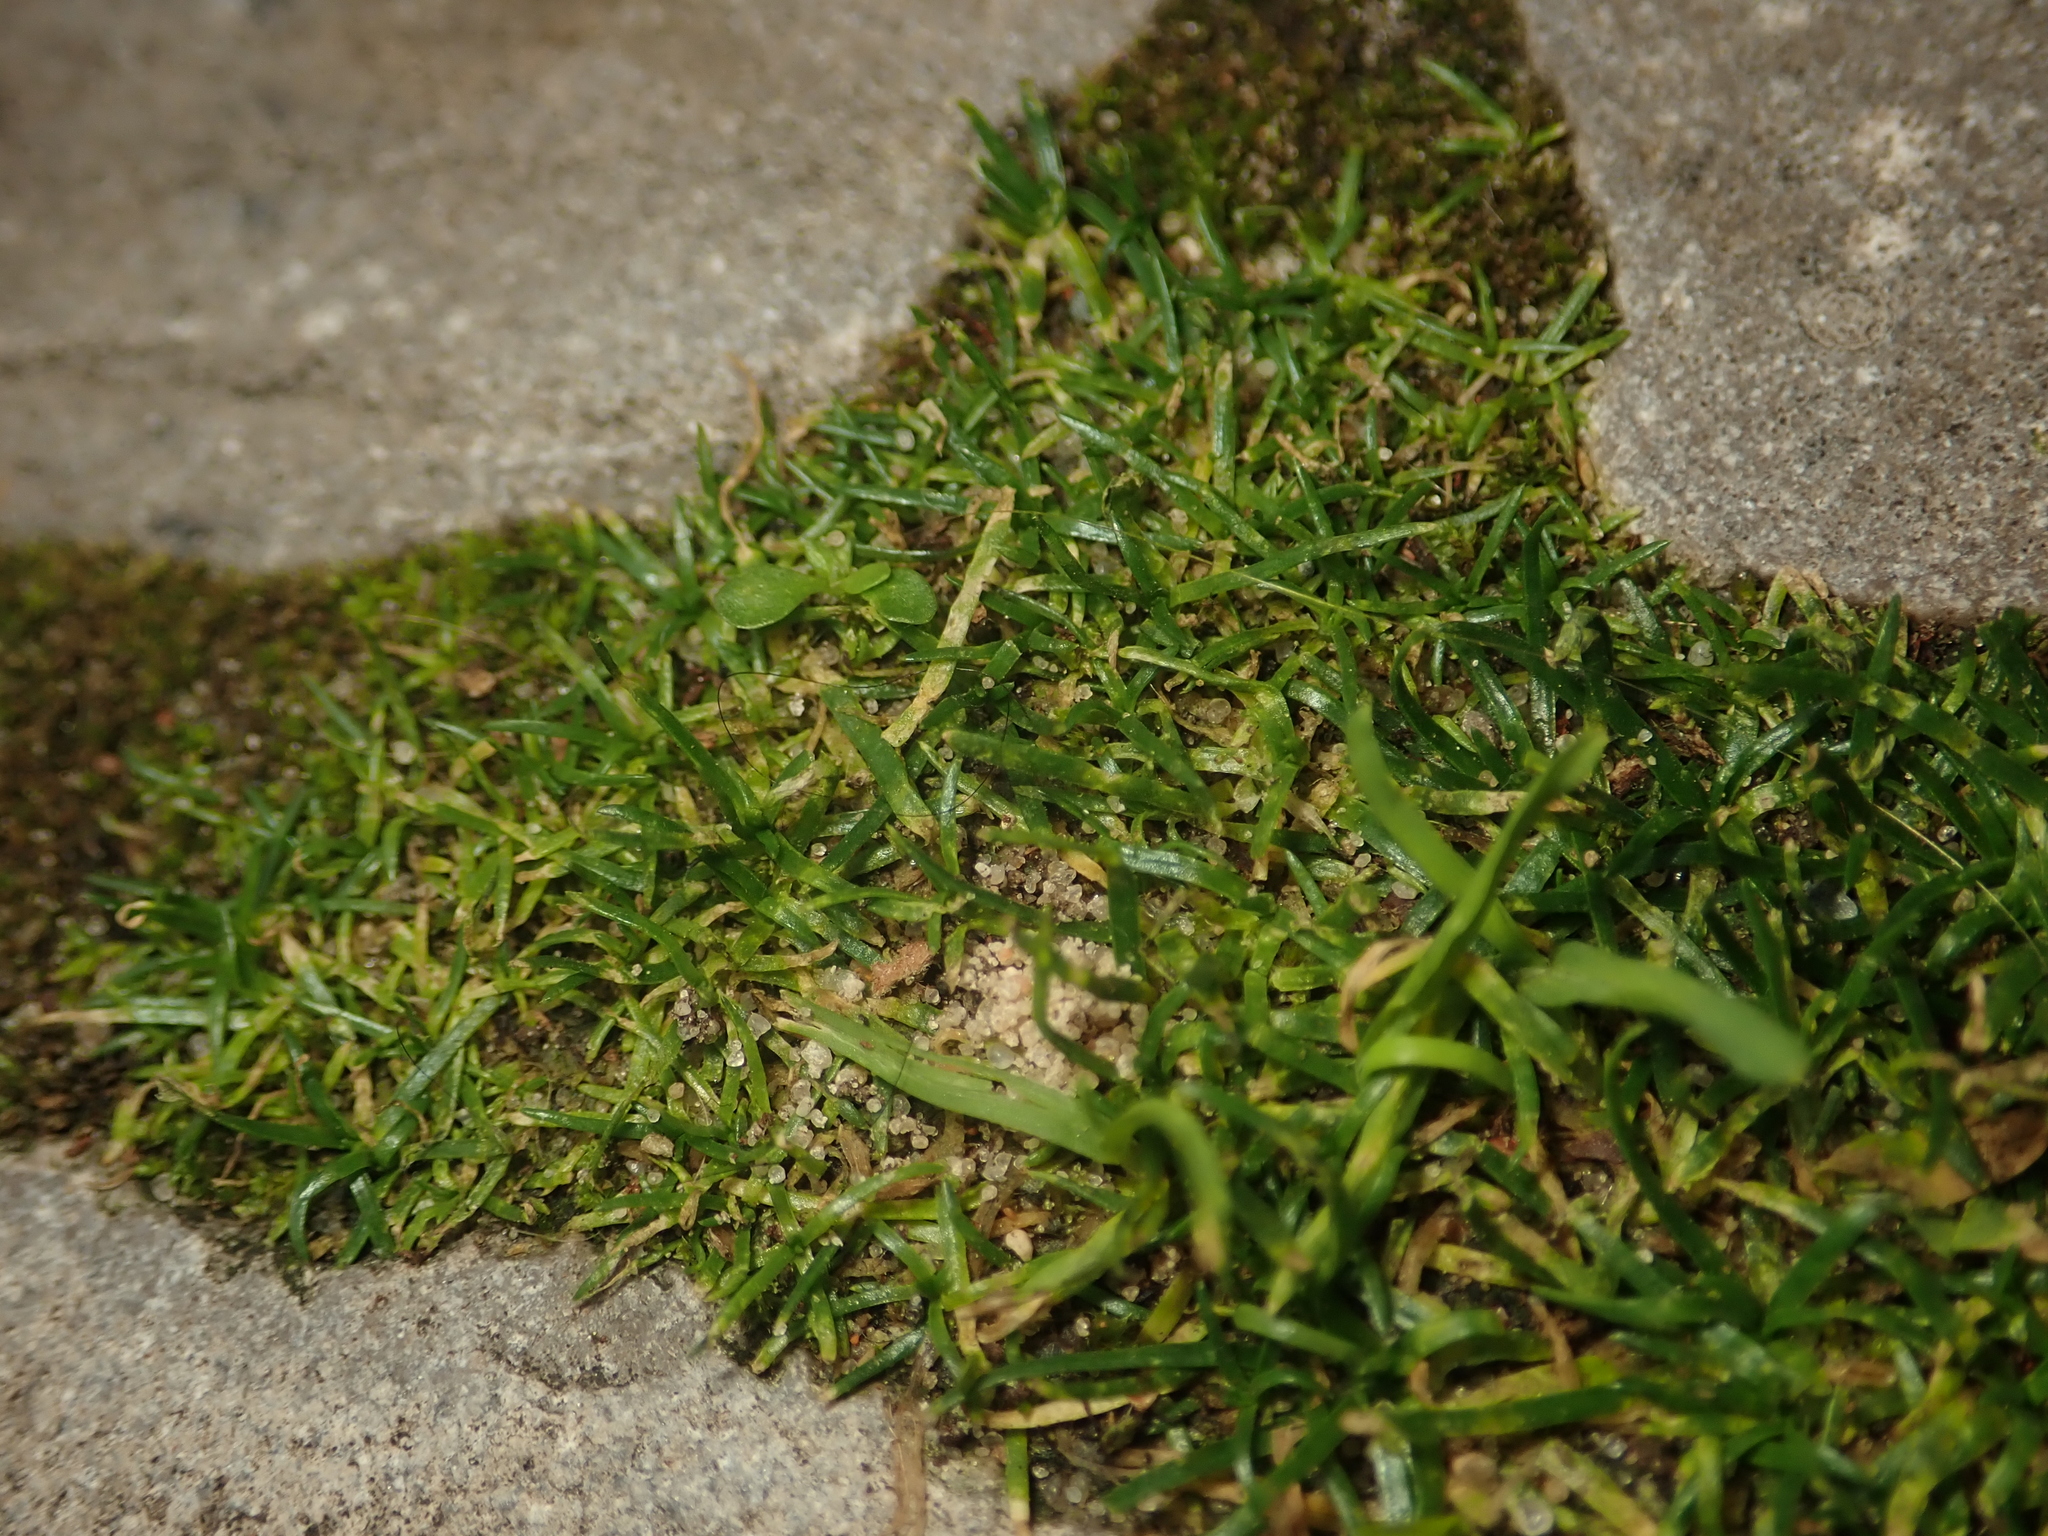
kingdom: Plantae
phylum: Tracheophyta
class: Magnoliopsida
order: Caryophyllales
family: Caryophyllaceae
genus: Sagina
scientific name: Sagina procumbens
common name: Procumbent pearlwort
